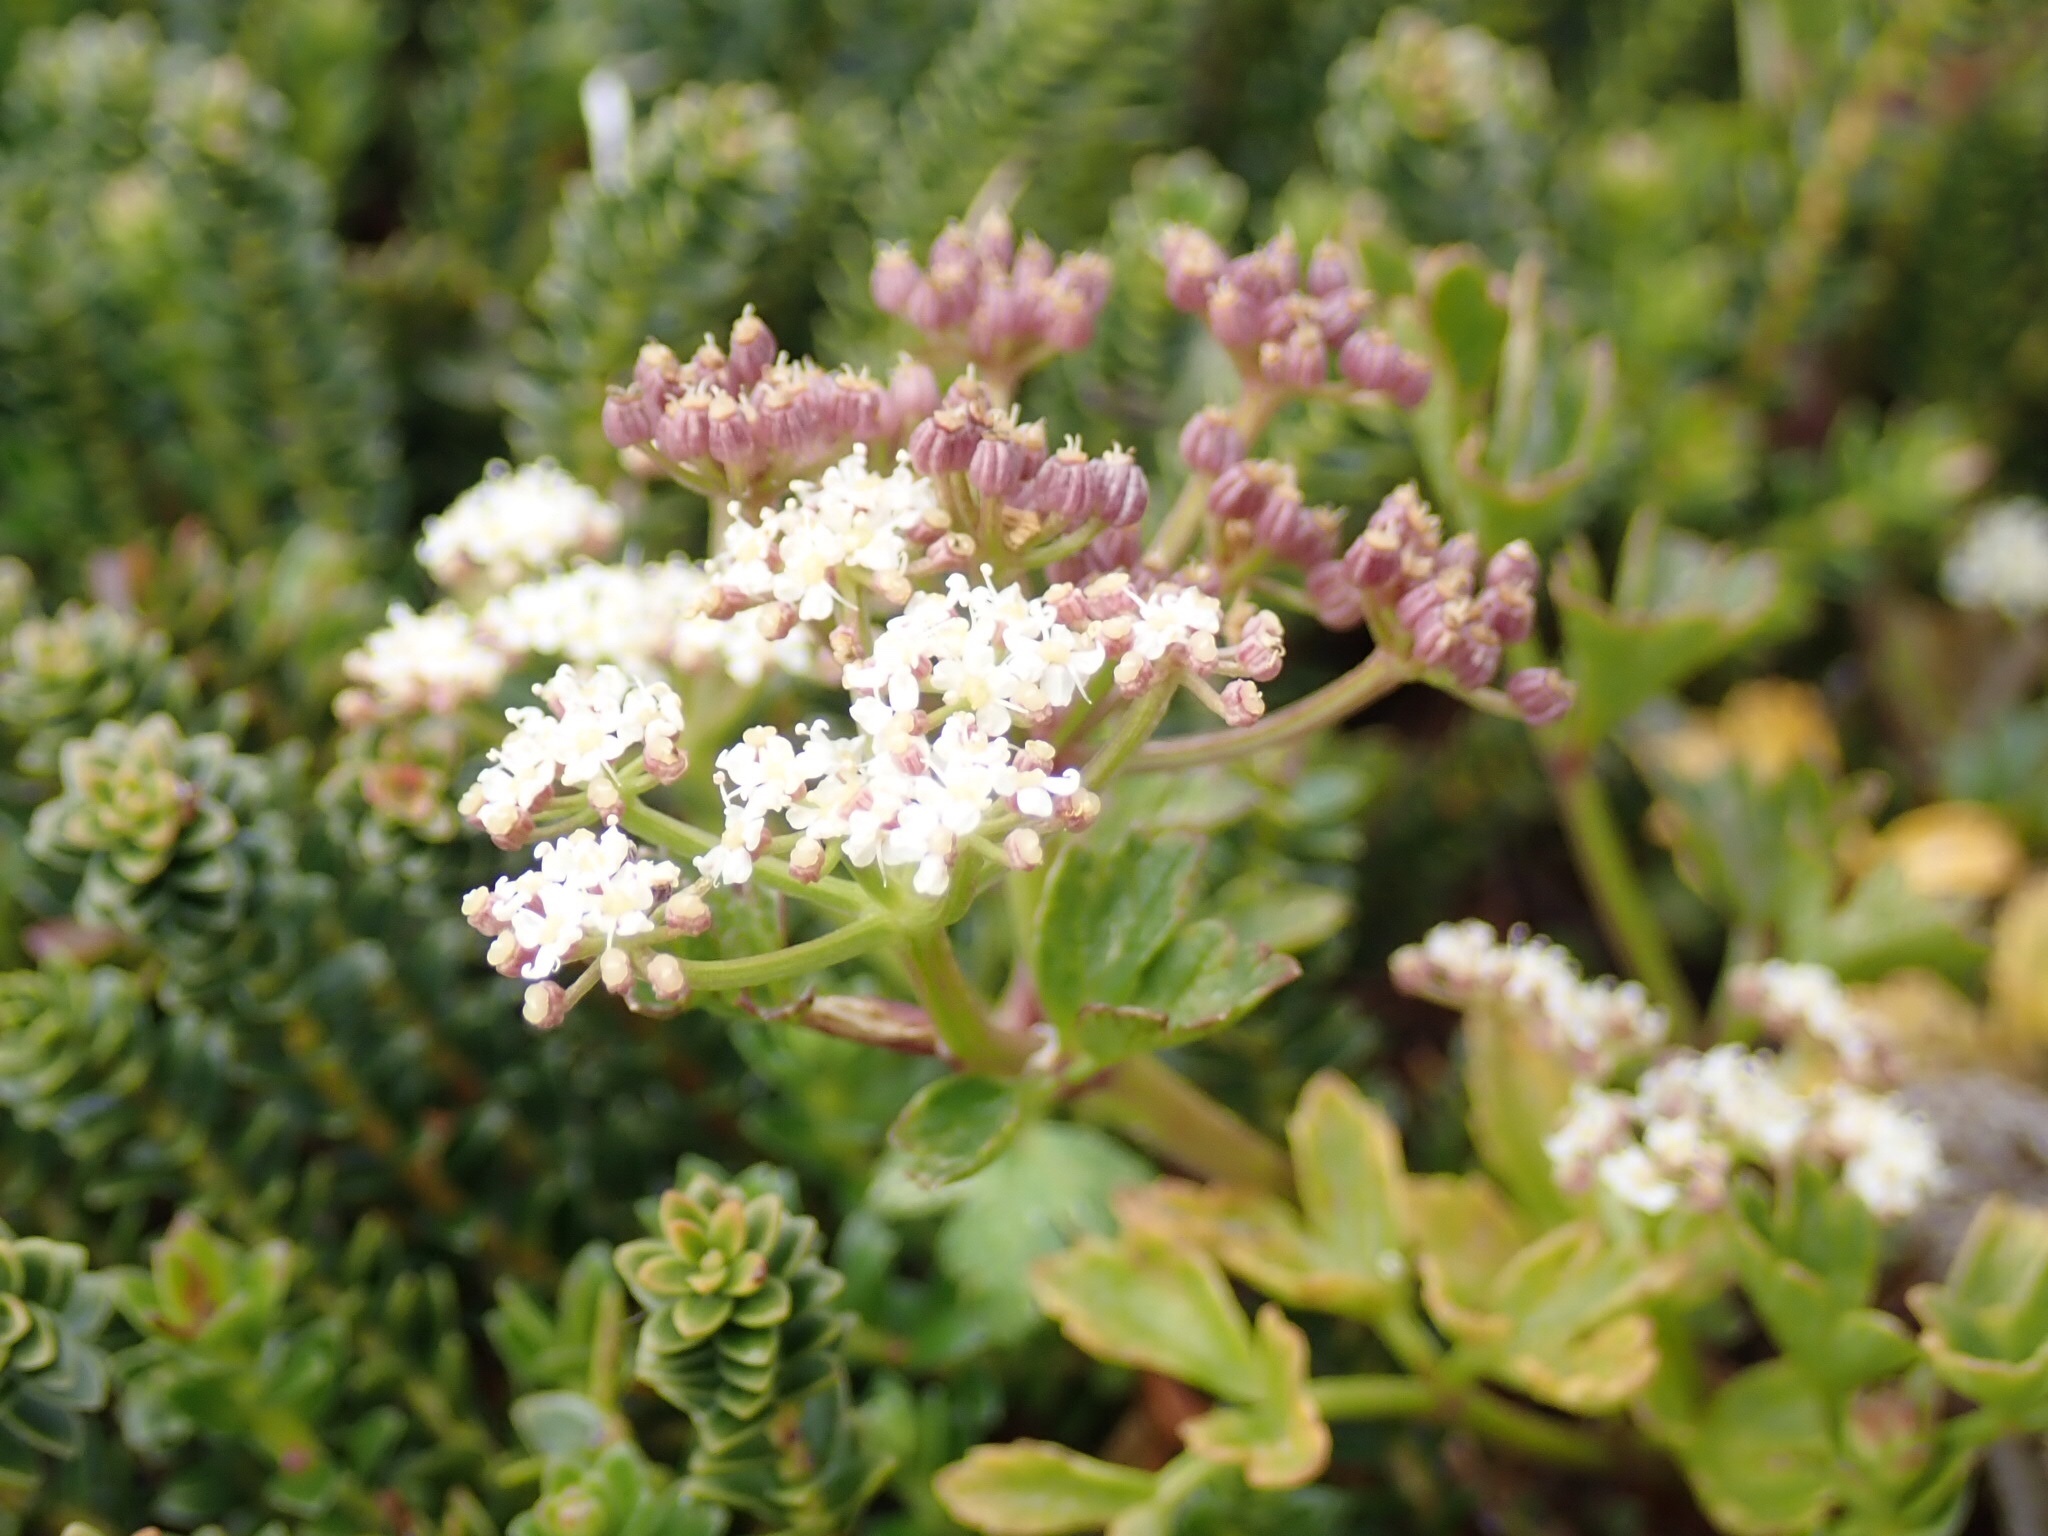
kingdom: Plantae
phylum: Tracheophyta
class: Magnoliopsida
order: Apiales
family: Apiaceae
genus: Apium
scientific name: Apium prostratum
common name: Prostrate marshwort
